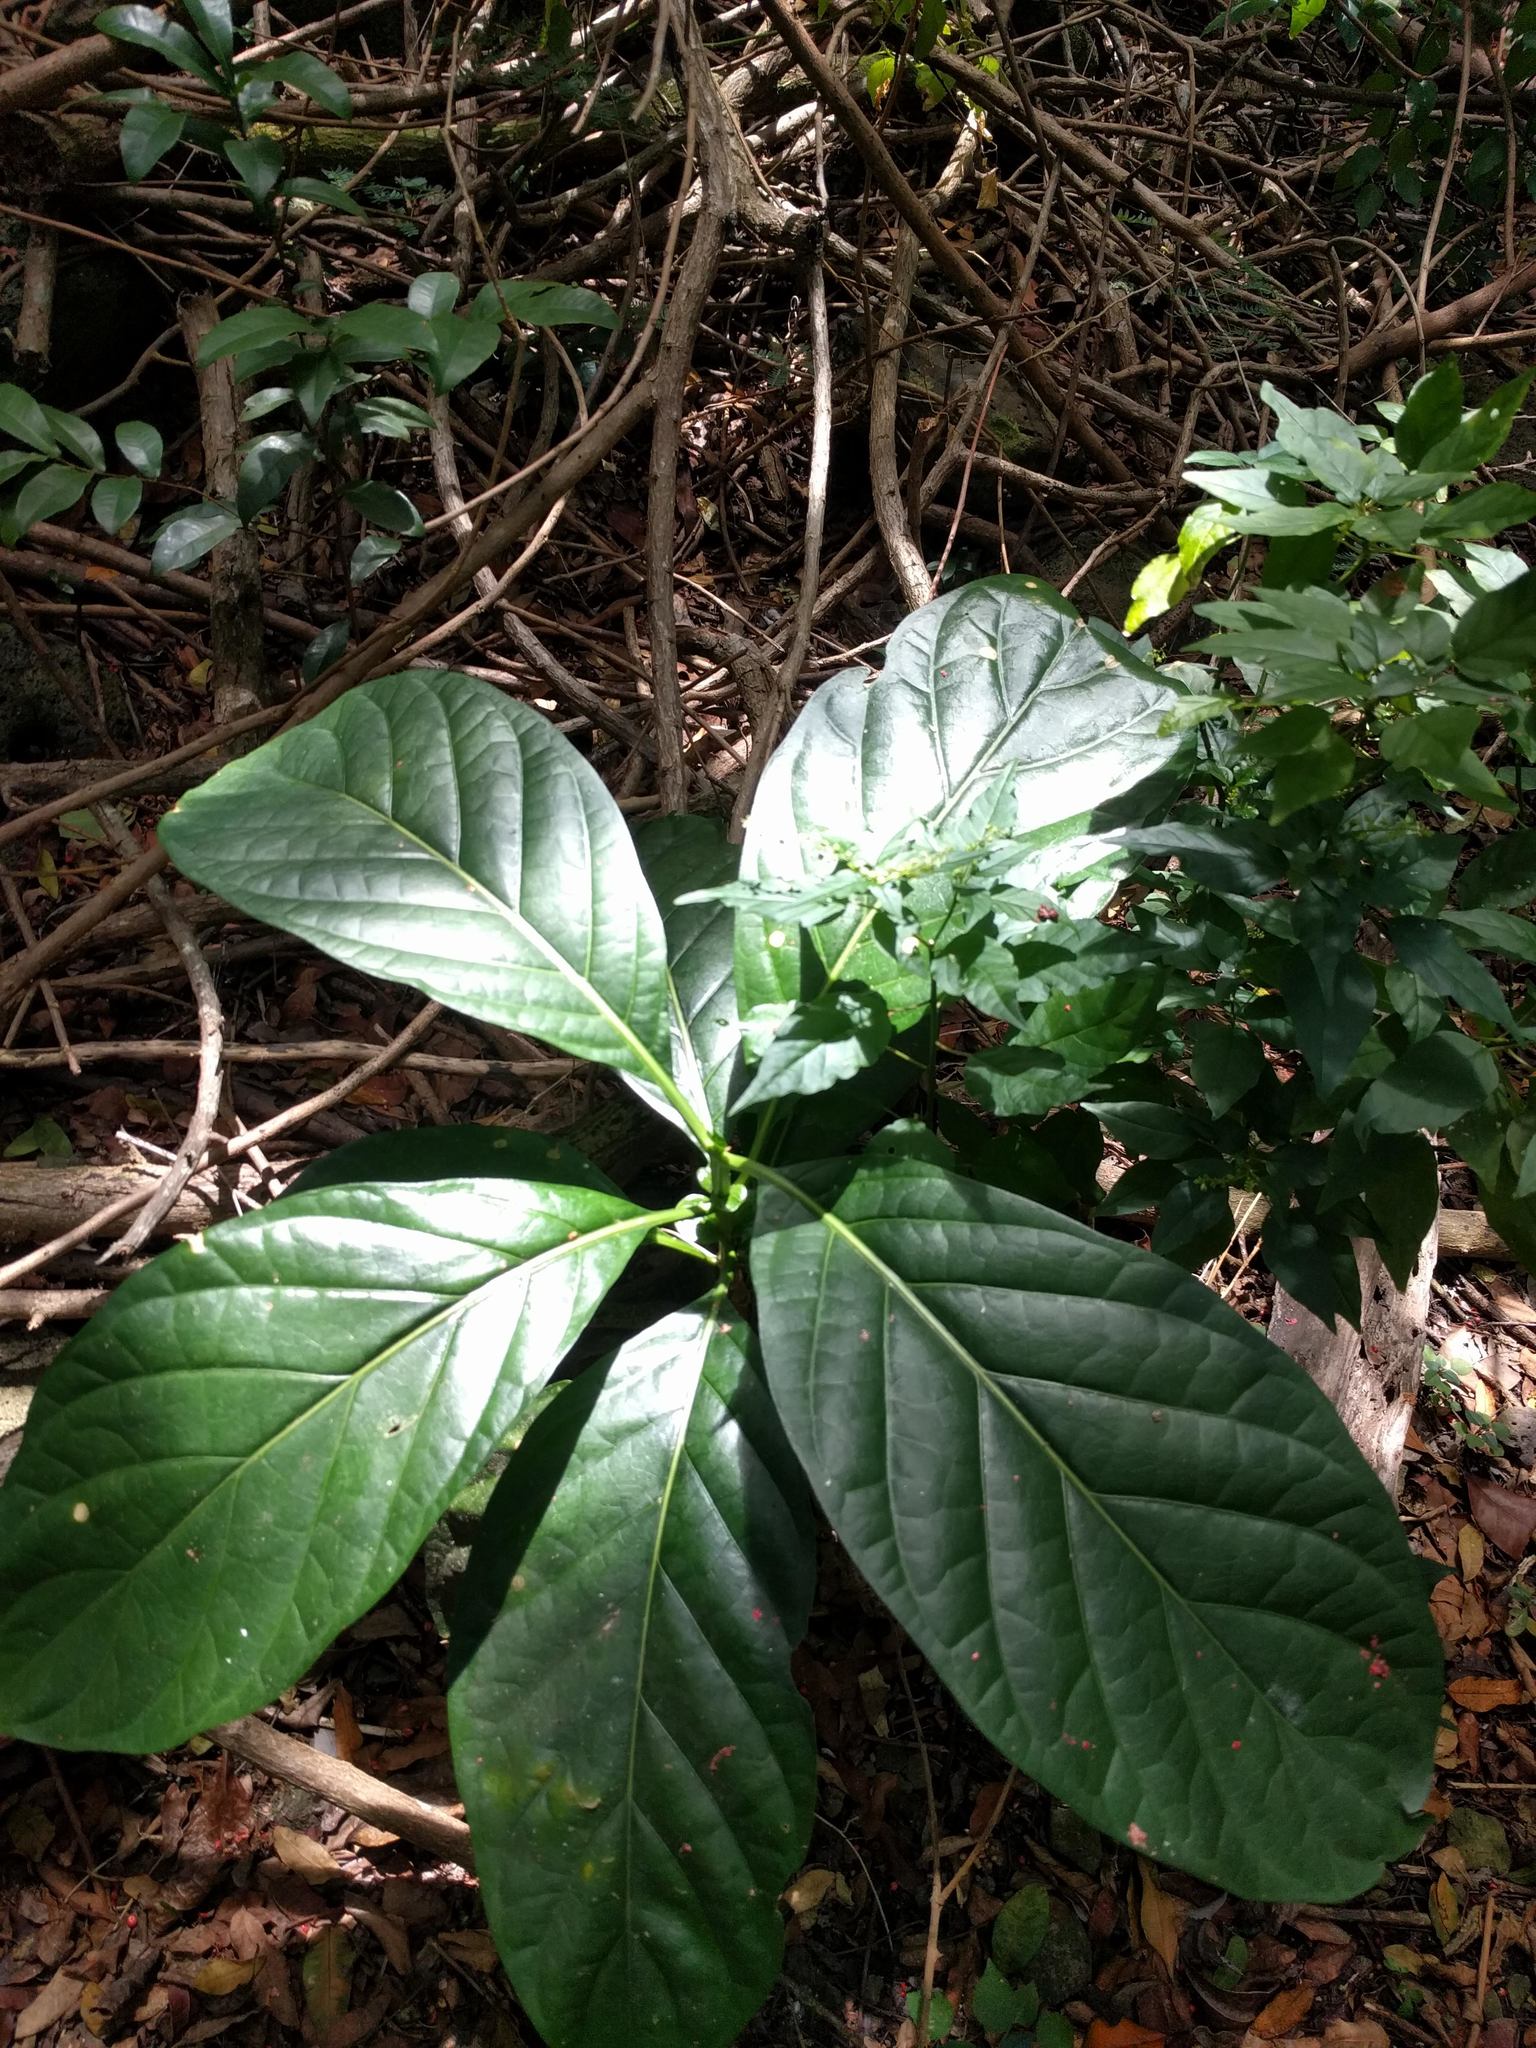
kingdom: Plantae
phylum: Tracheophyta
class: Magnoliopsida
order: Gentianales
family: Rubiaceae
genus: Morinda
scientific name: Morinda citrifolia
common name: Indian-mulberry
